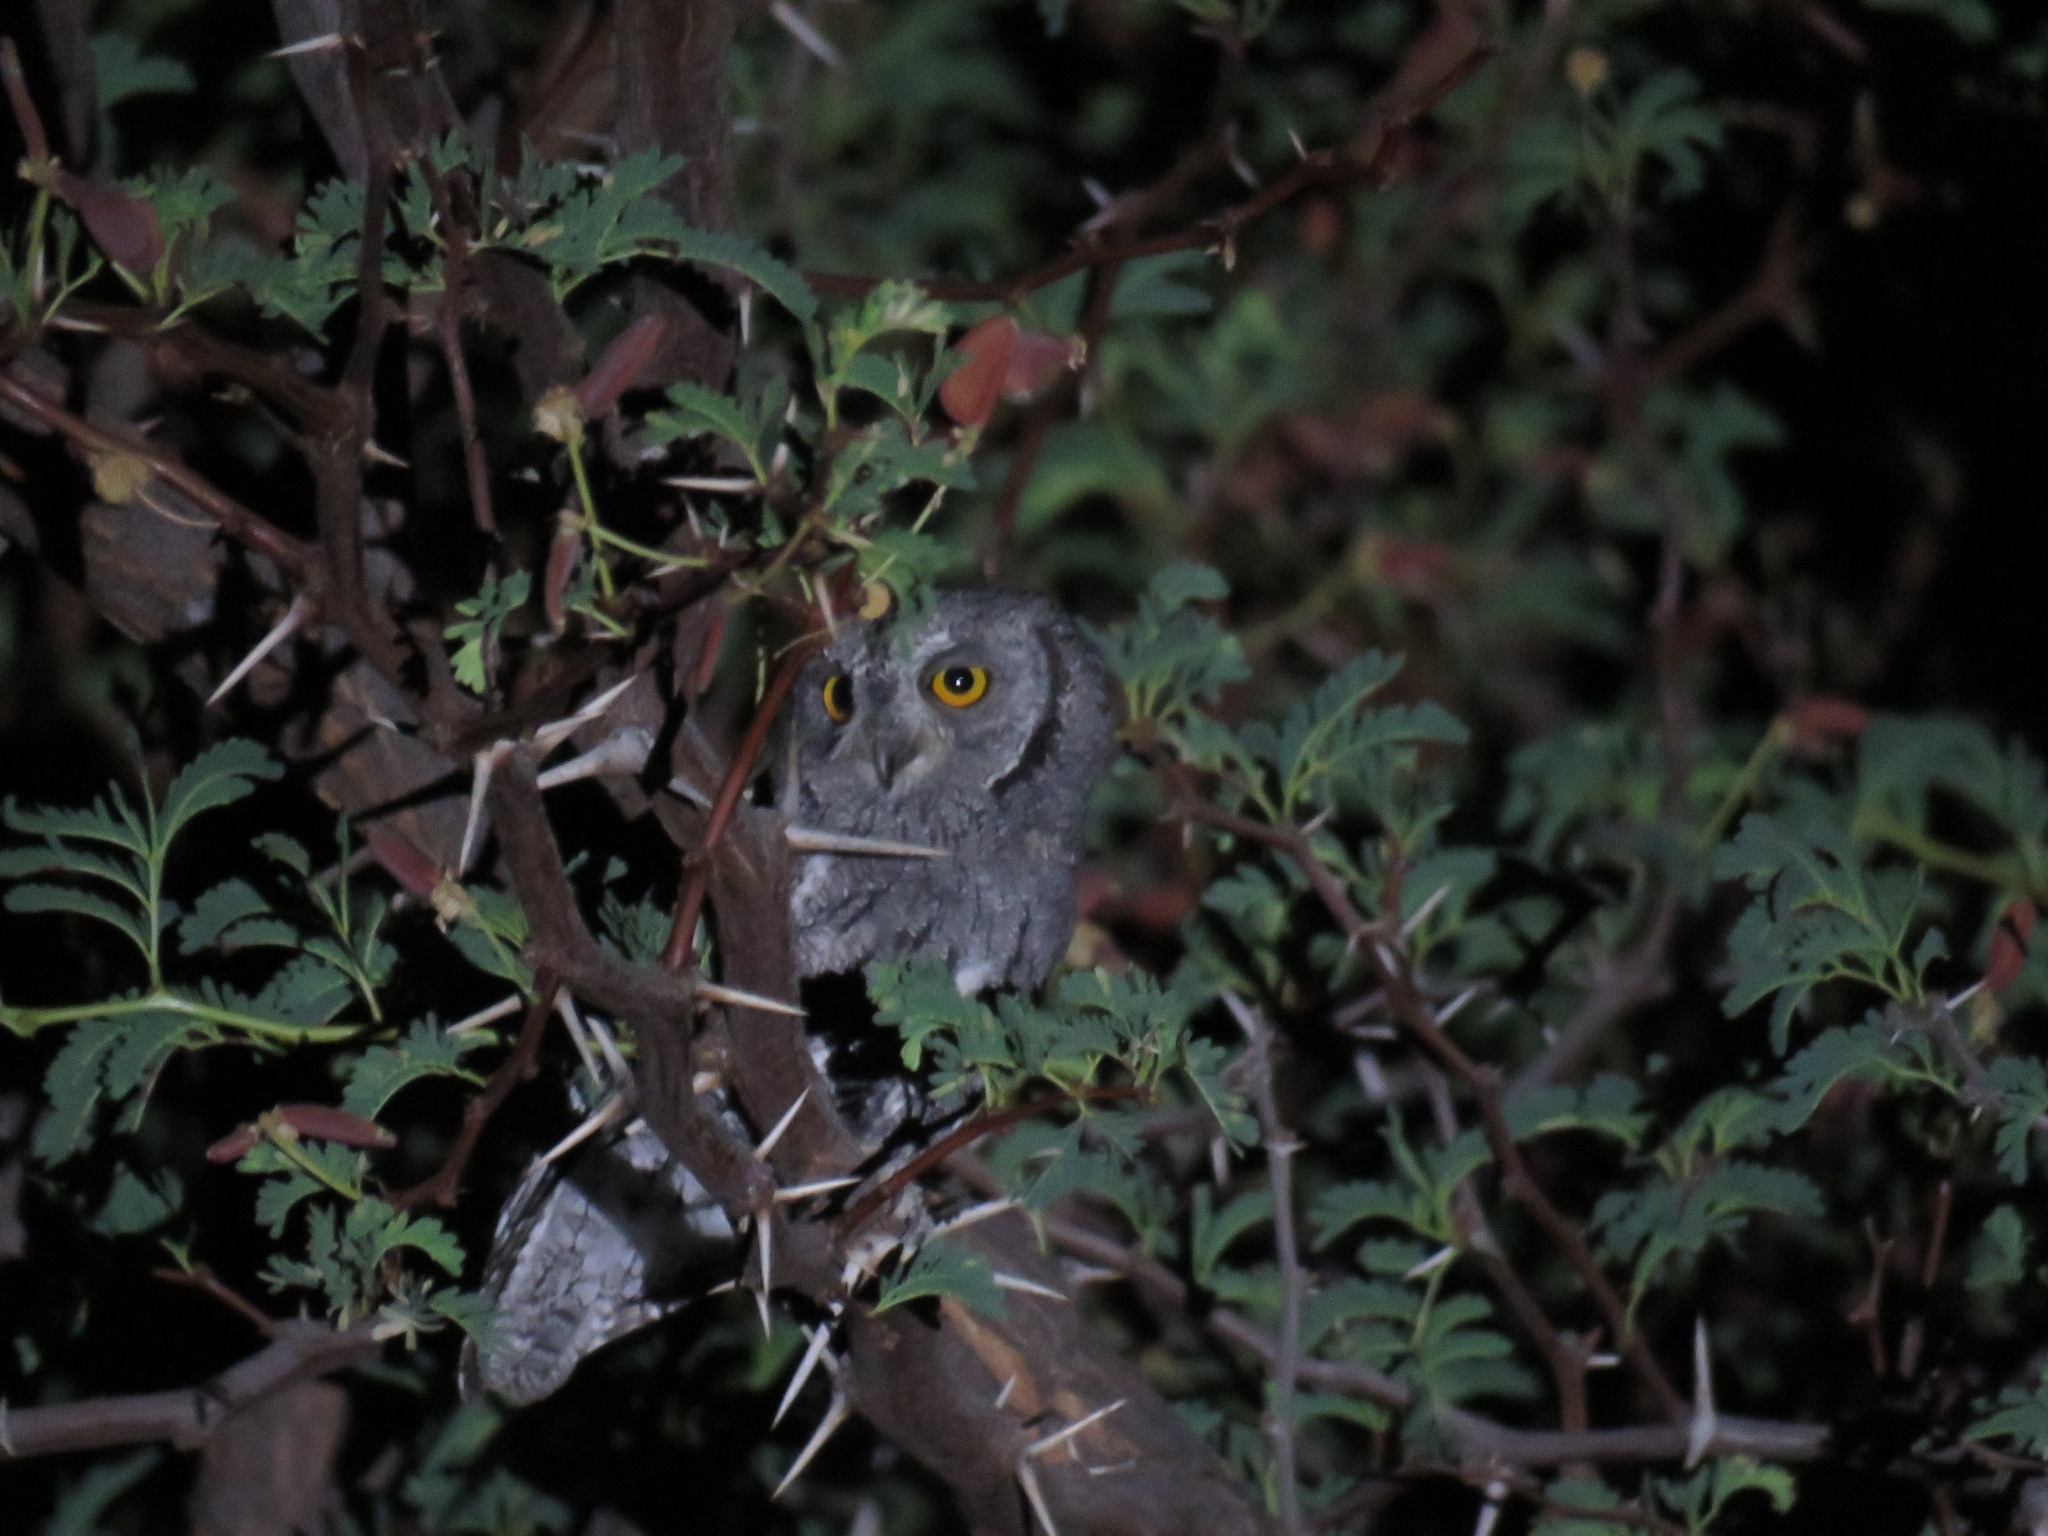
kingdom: Animalia
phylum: Chordata
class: Aves
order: Strigiformes
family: Strigidae
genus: Otus
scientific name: Otus senegalensis
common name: African scops owl
